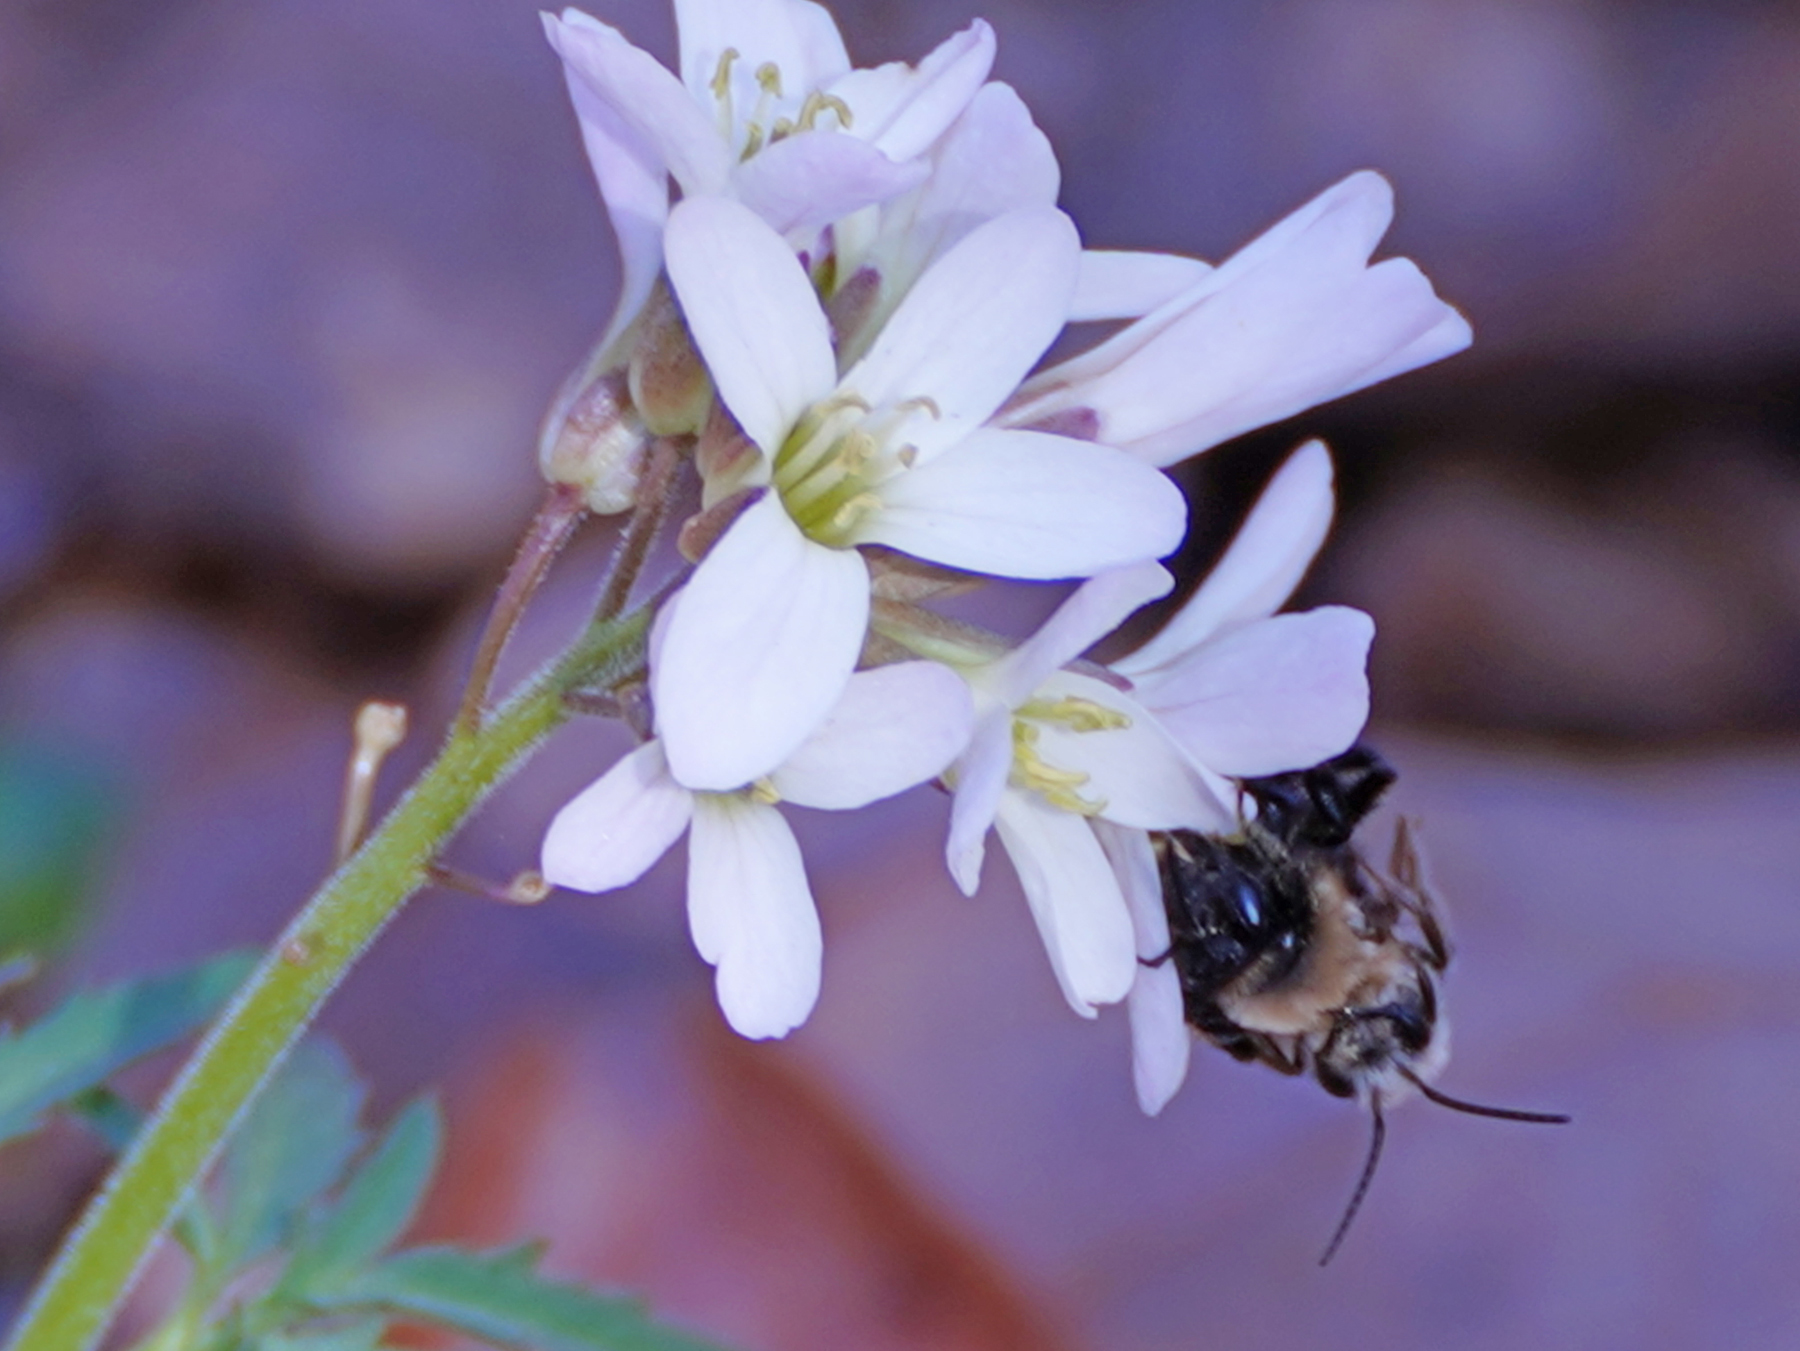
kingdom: Animalia
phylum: Arthropoda
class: Insecta
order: Hymenoptera
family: Andrenidae
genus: Andrena
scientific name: Andrena carlini
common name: Carlin's mining bee
